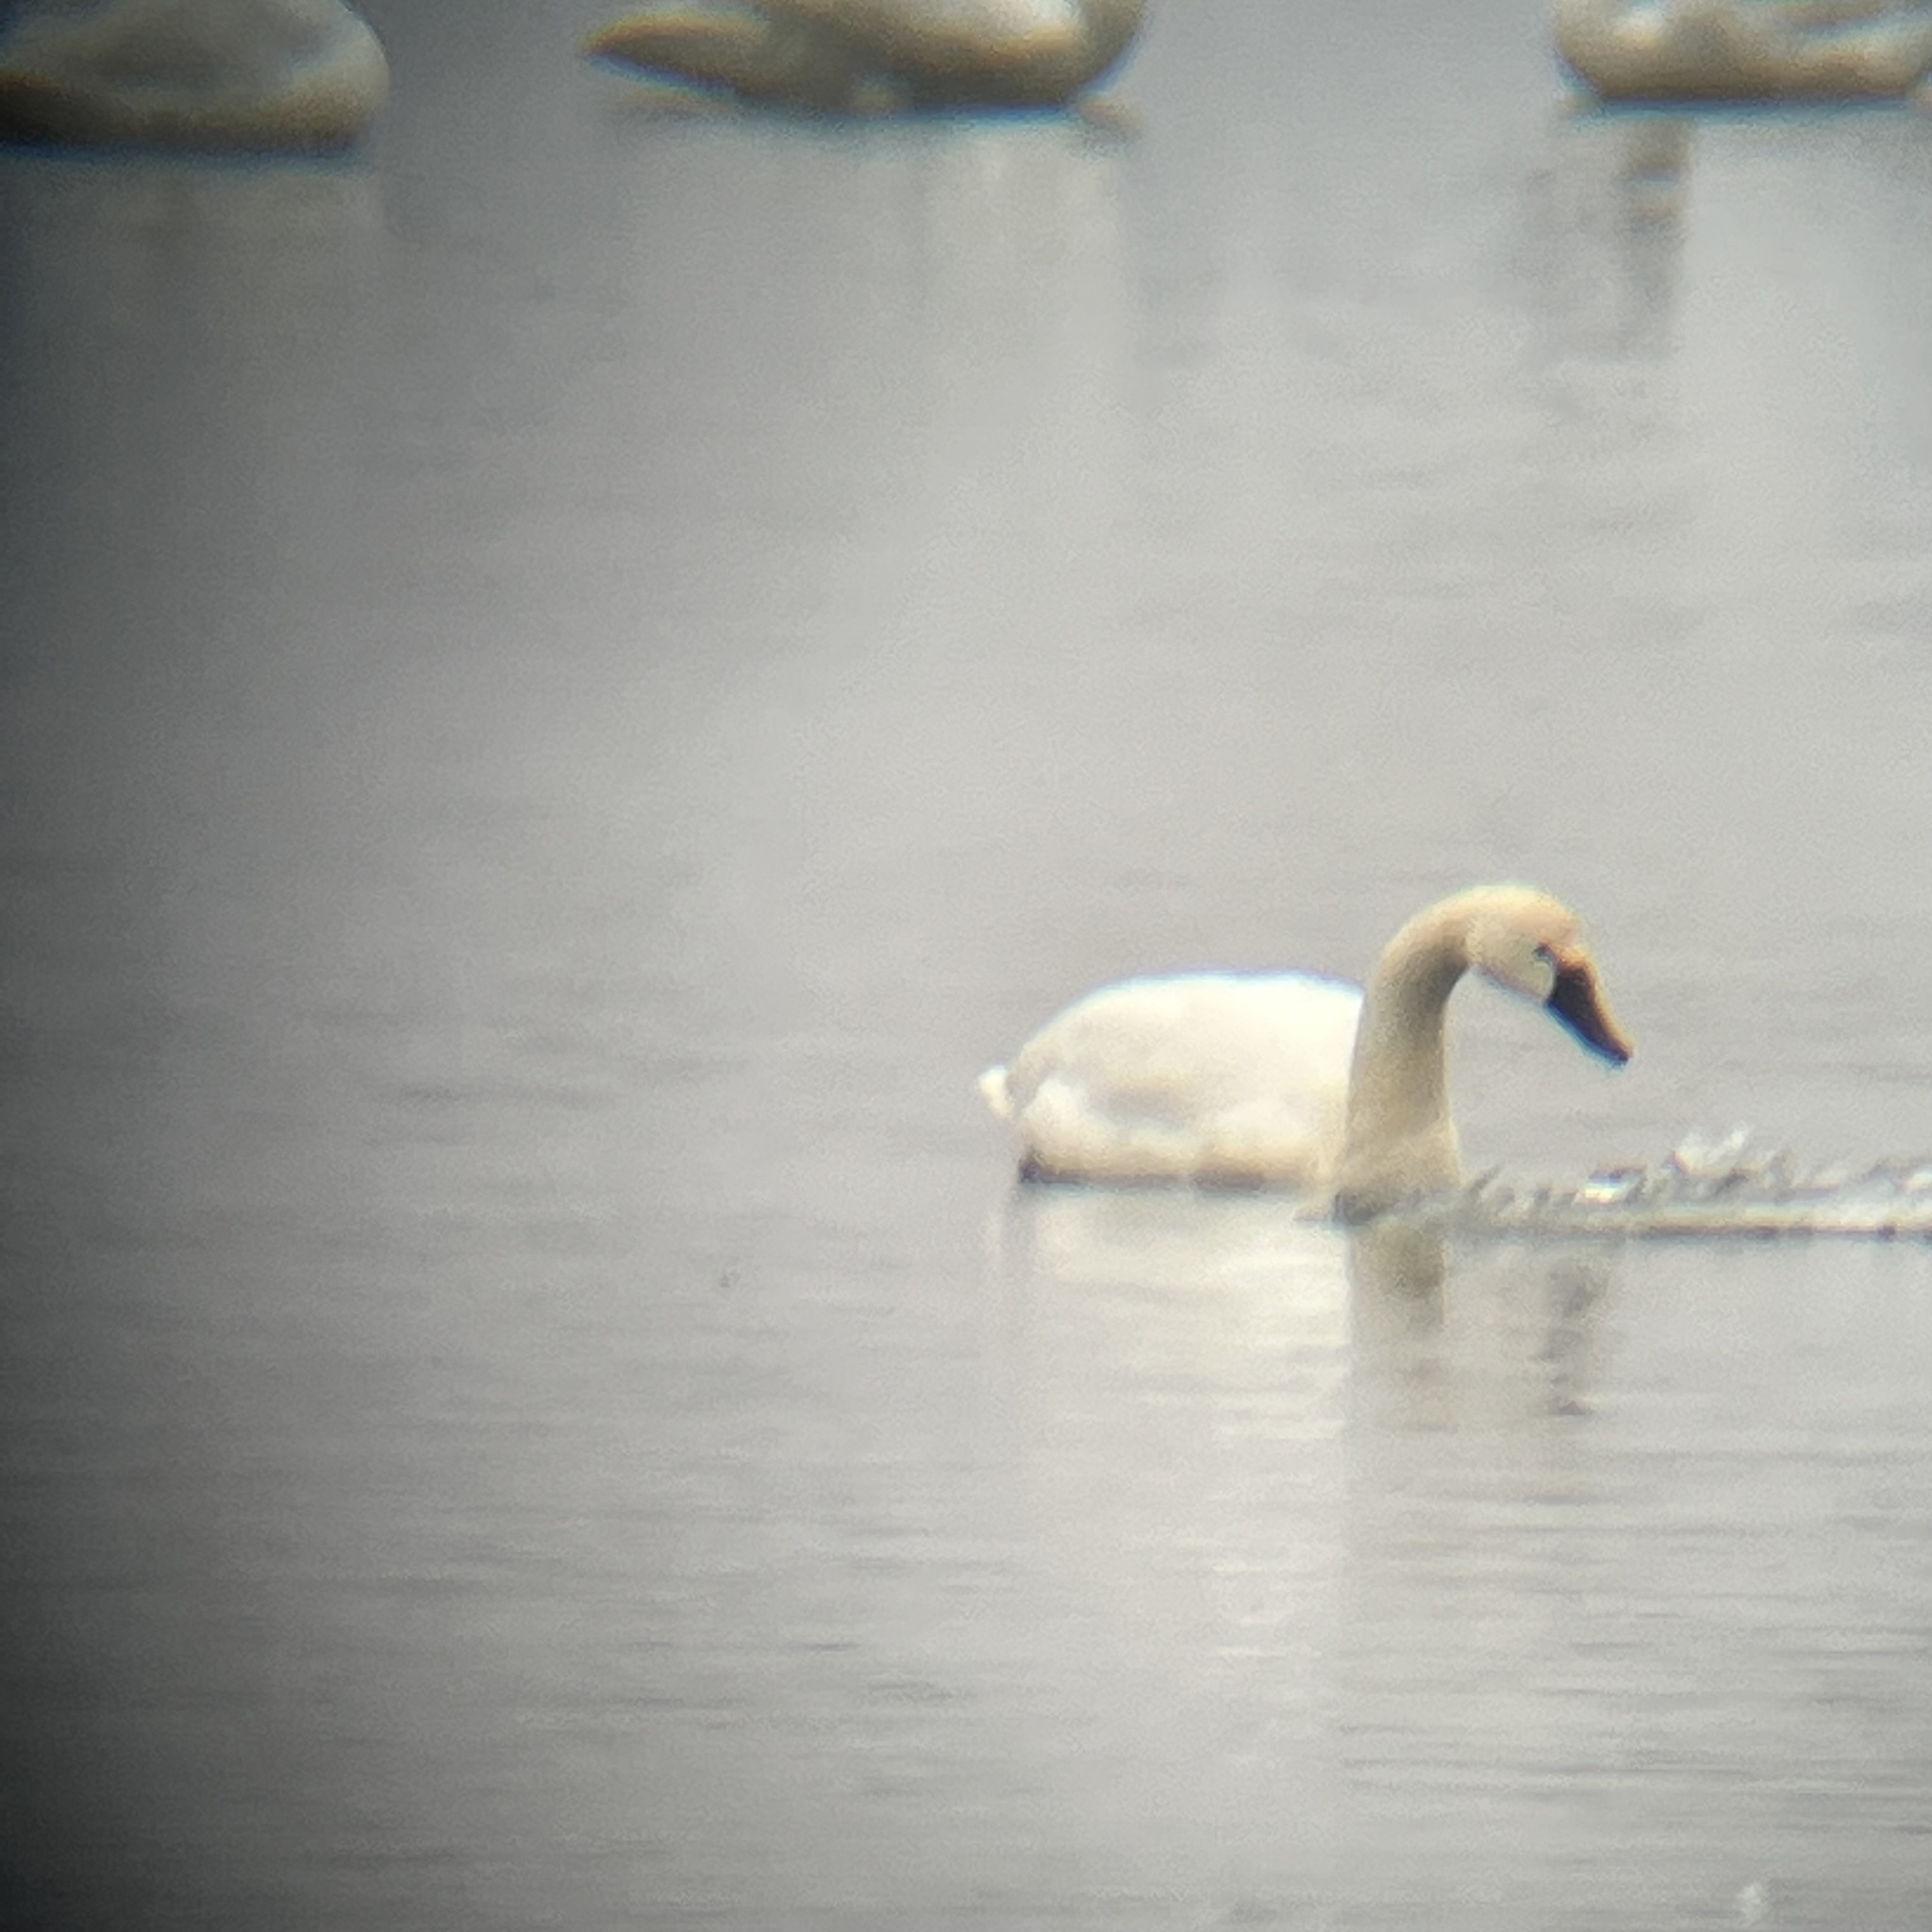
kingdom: Animalia
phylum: Chordata
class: Aves
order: Anseriformes
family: Anatidae
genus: Cygnus
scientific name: Cygnus columbianus
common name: Tundra swan
